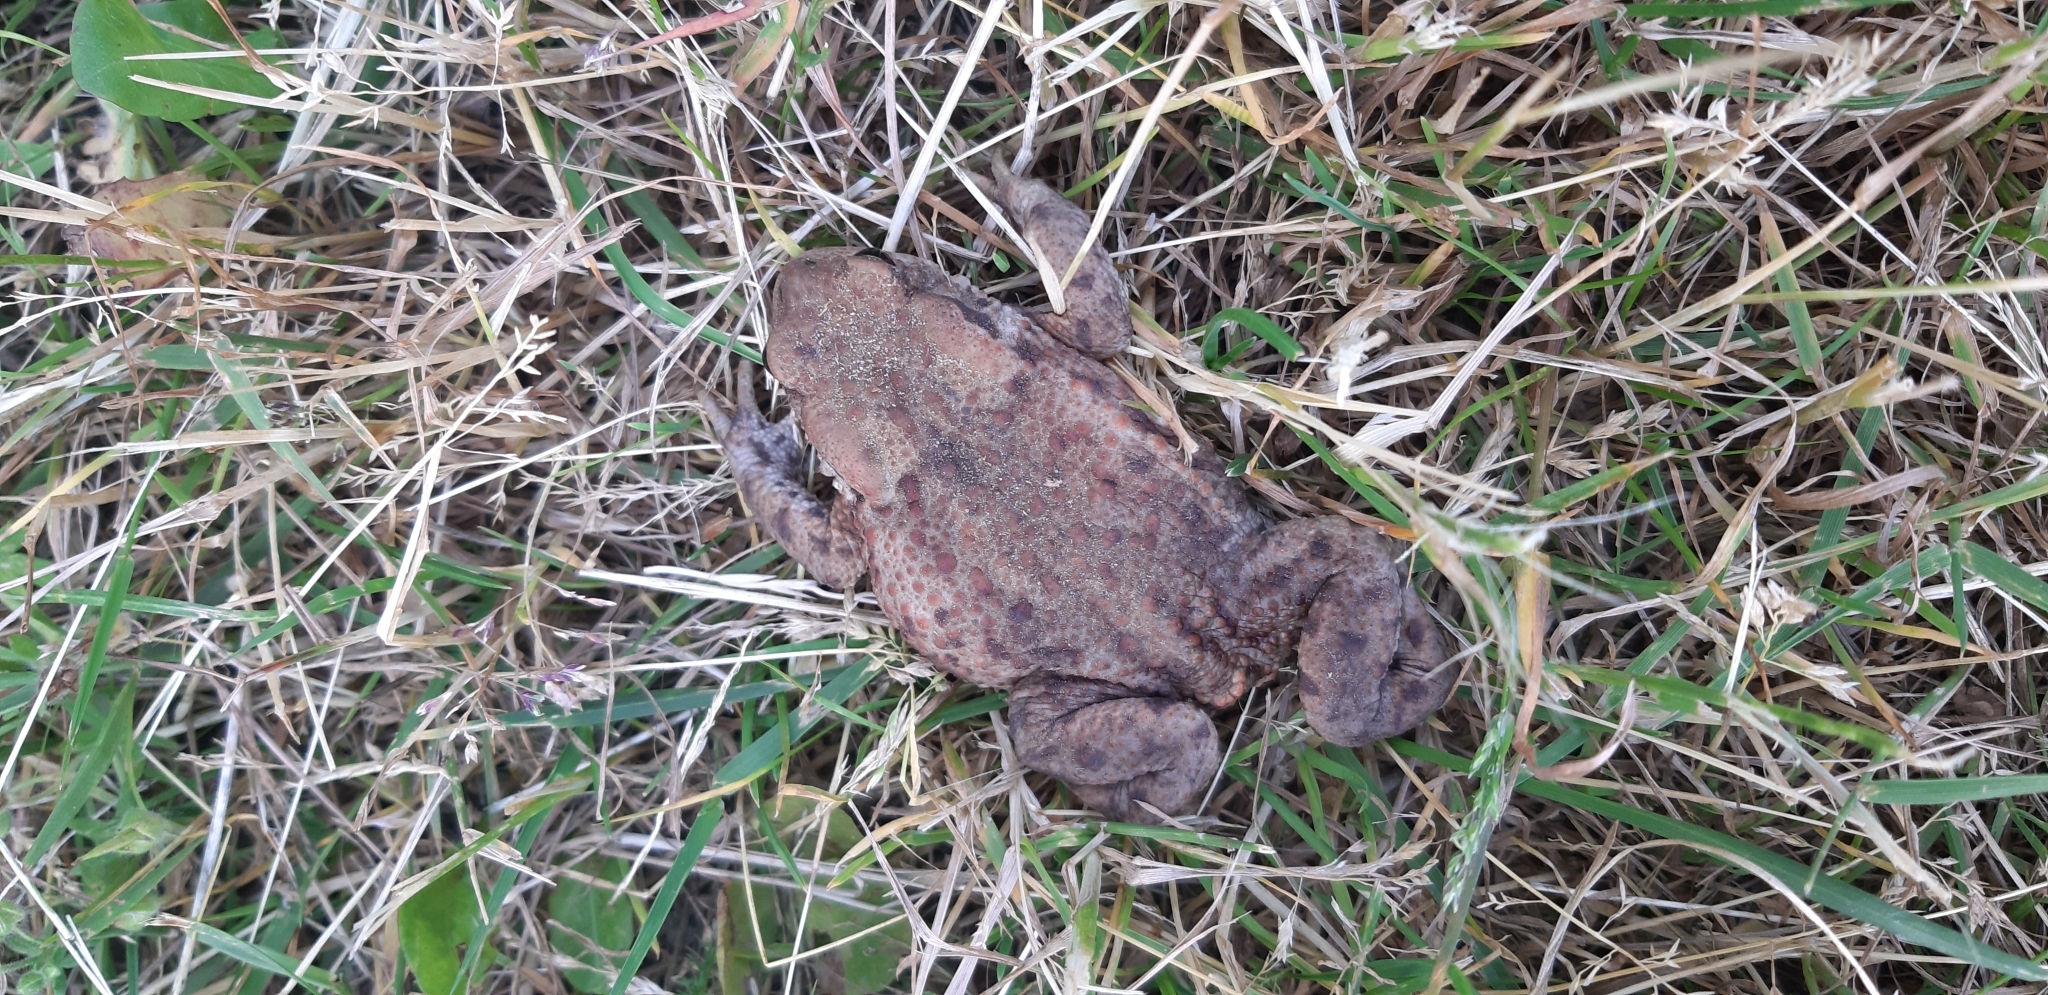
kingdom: Animalia
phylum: Chordata
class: Amphibia
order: Anura
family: Bufonidae
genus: Bufo
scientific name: Bufo bufo
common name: Common toad
